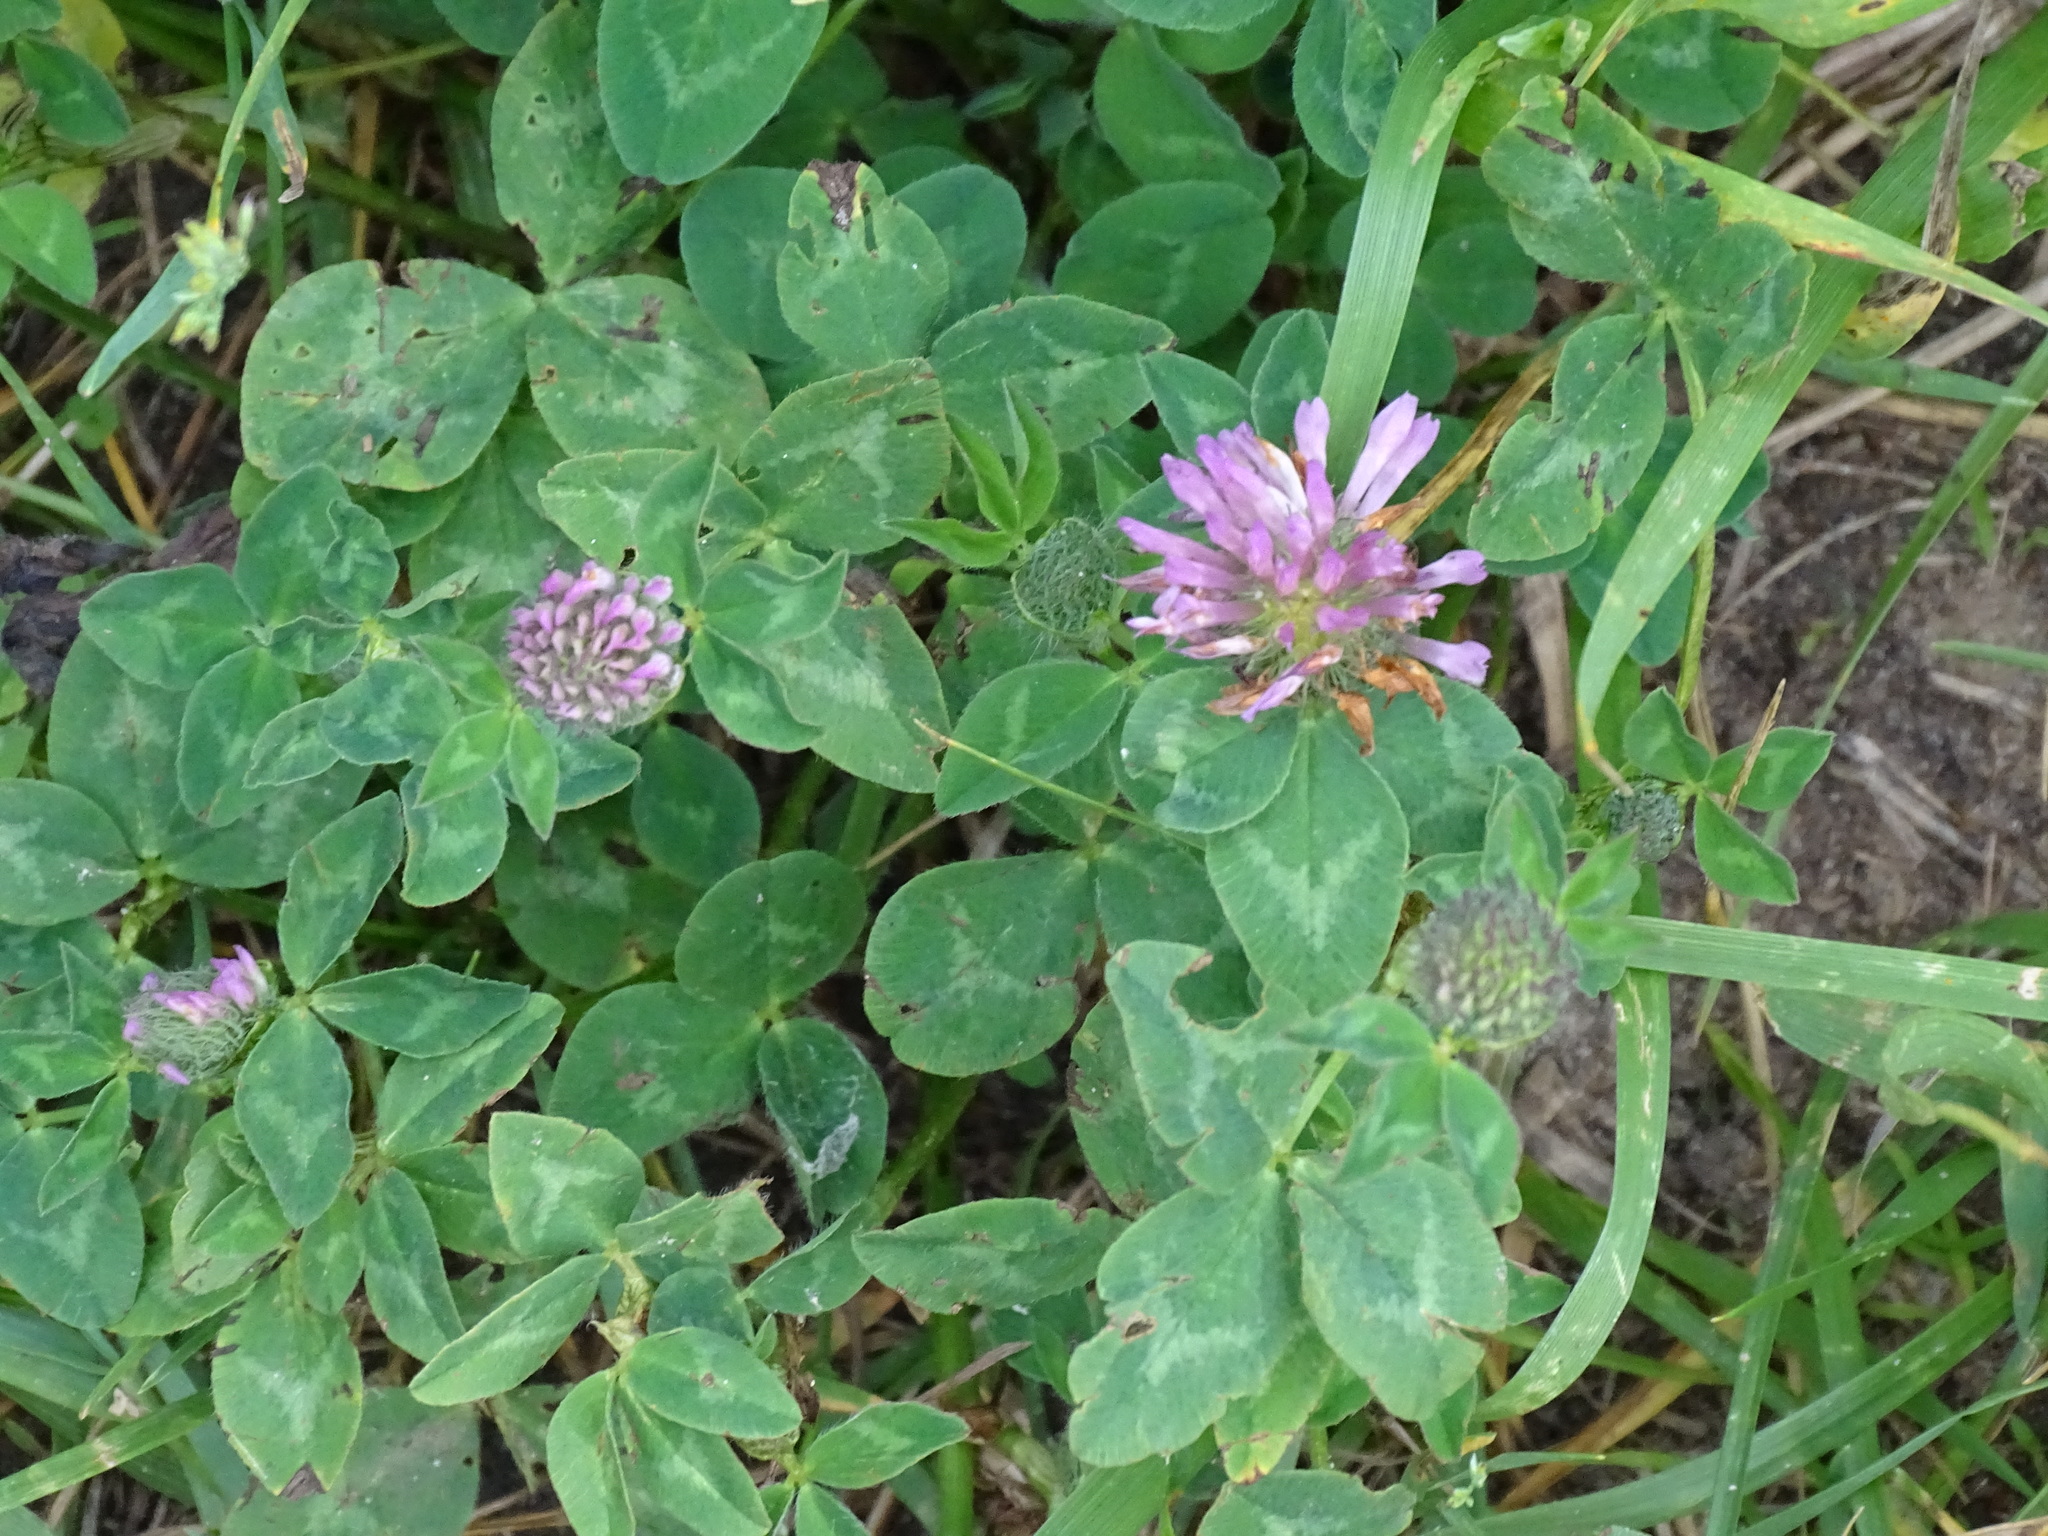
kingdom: Plantae
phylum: Tracheophyta
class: Magnoliopsida
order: Fabales
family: Fabaceae
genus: Trifolium
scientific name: Trifolium pratense
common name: Red clover
